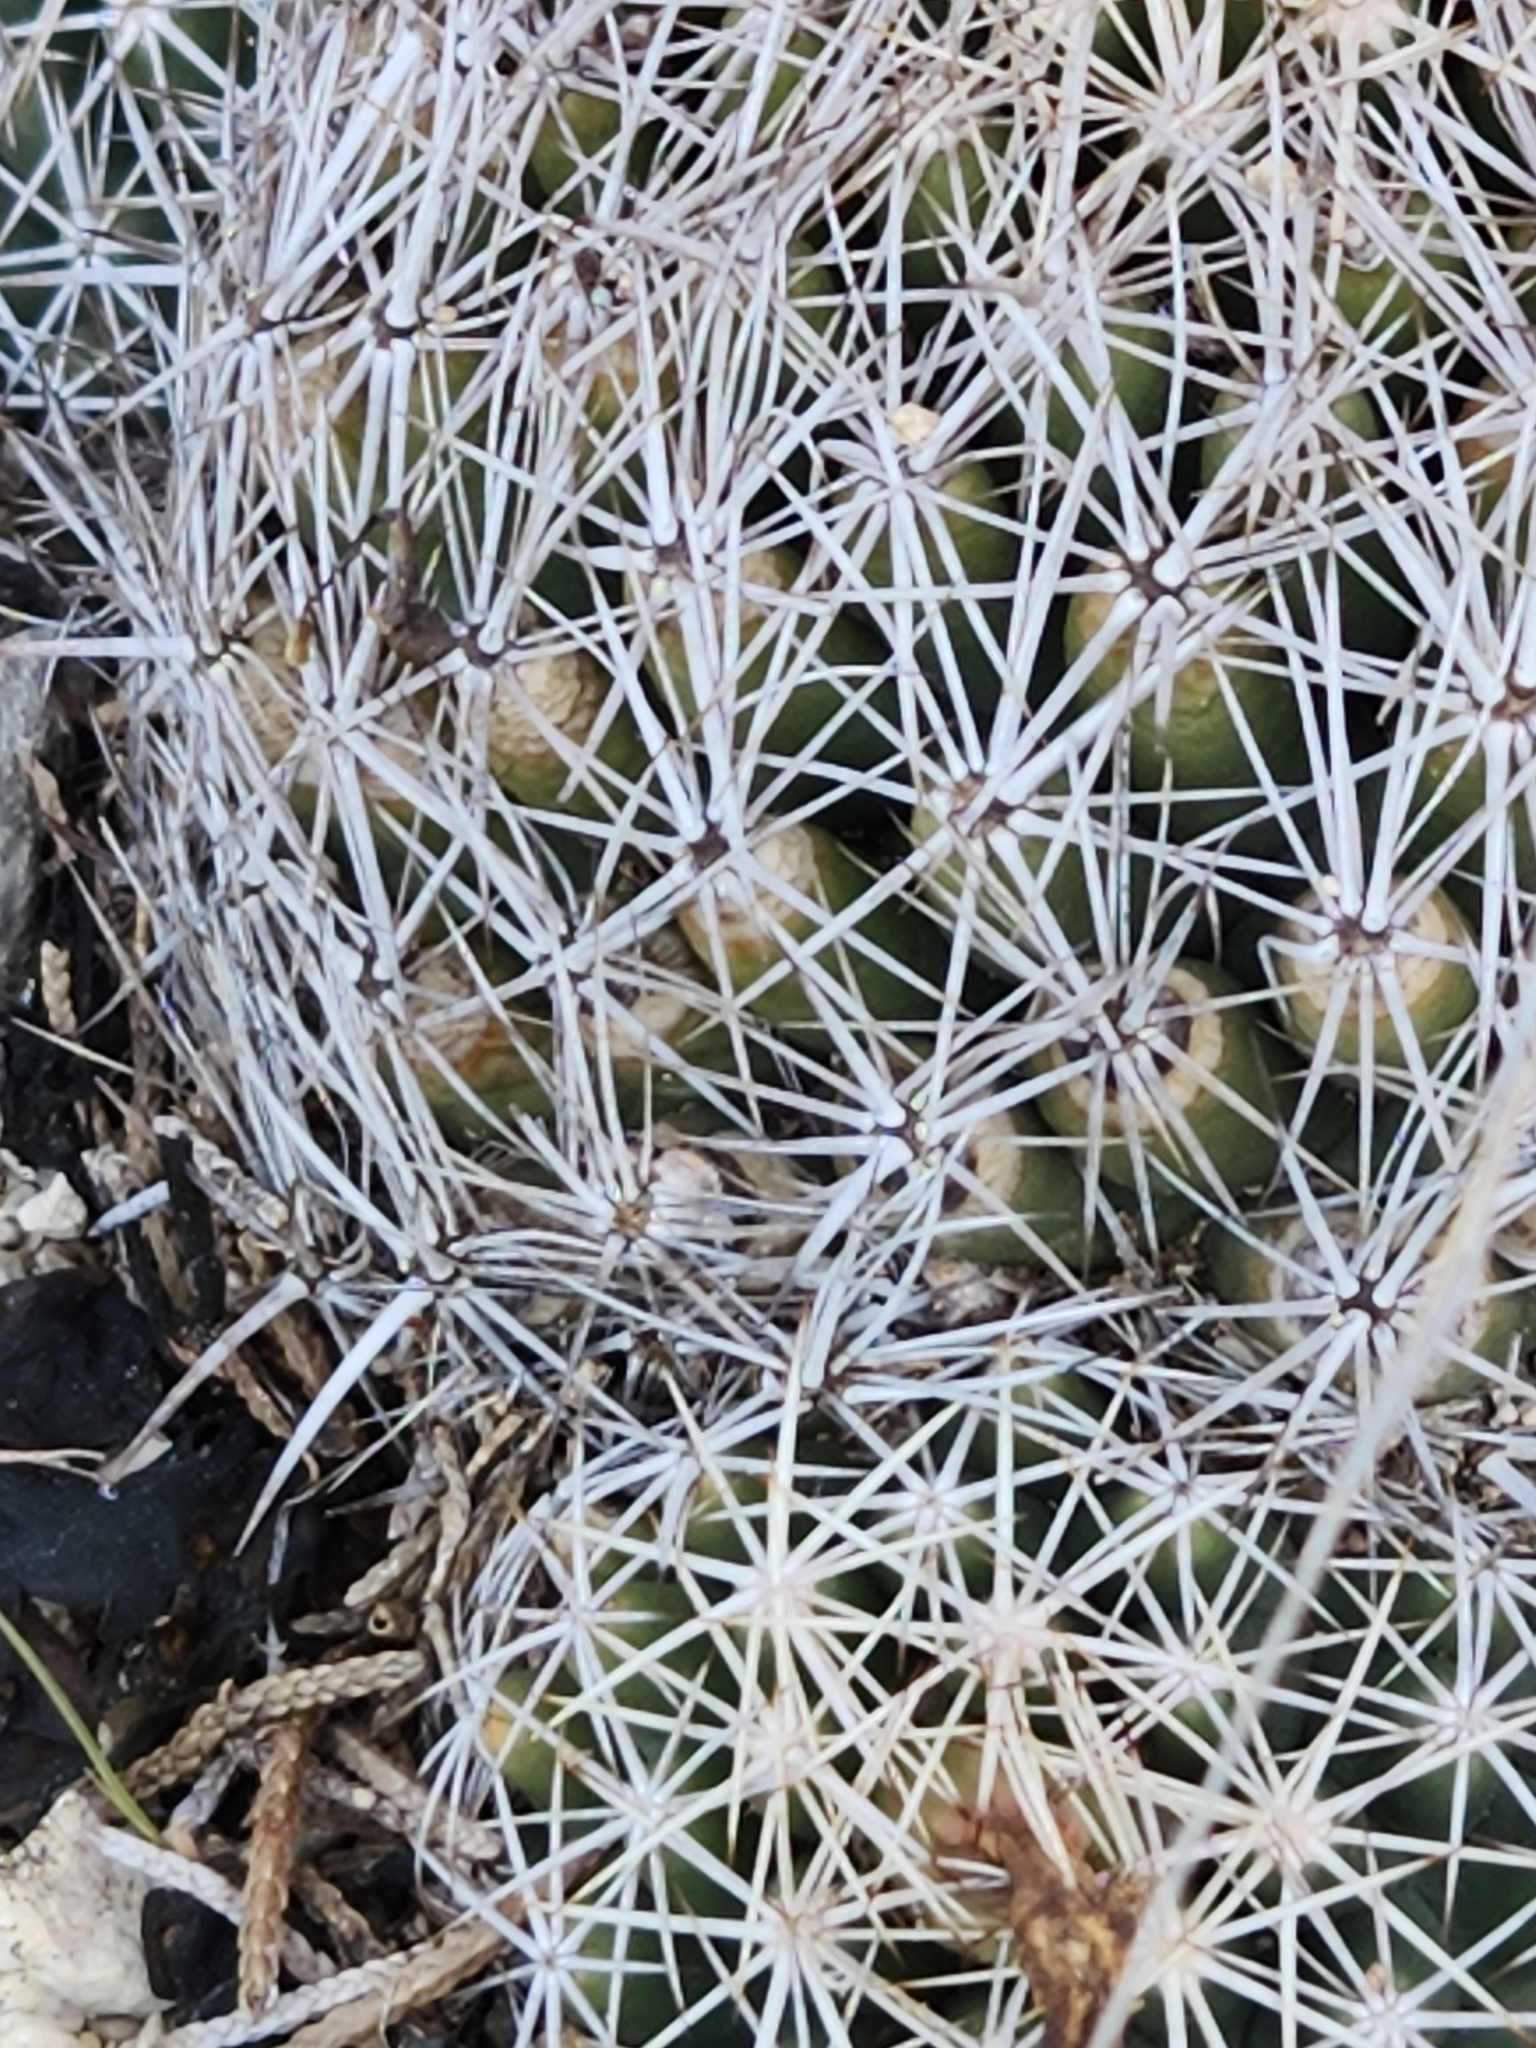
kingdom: Plantae
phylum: Tracheophyta
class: Magnoliopsida
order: Caryophyllales
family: Cactaceae
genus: Coryphantha
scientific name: Coryphantha sulcata
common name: Finger cactus
